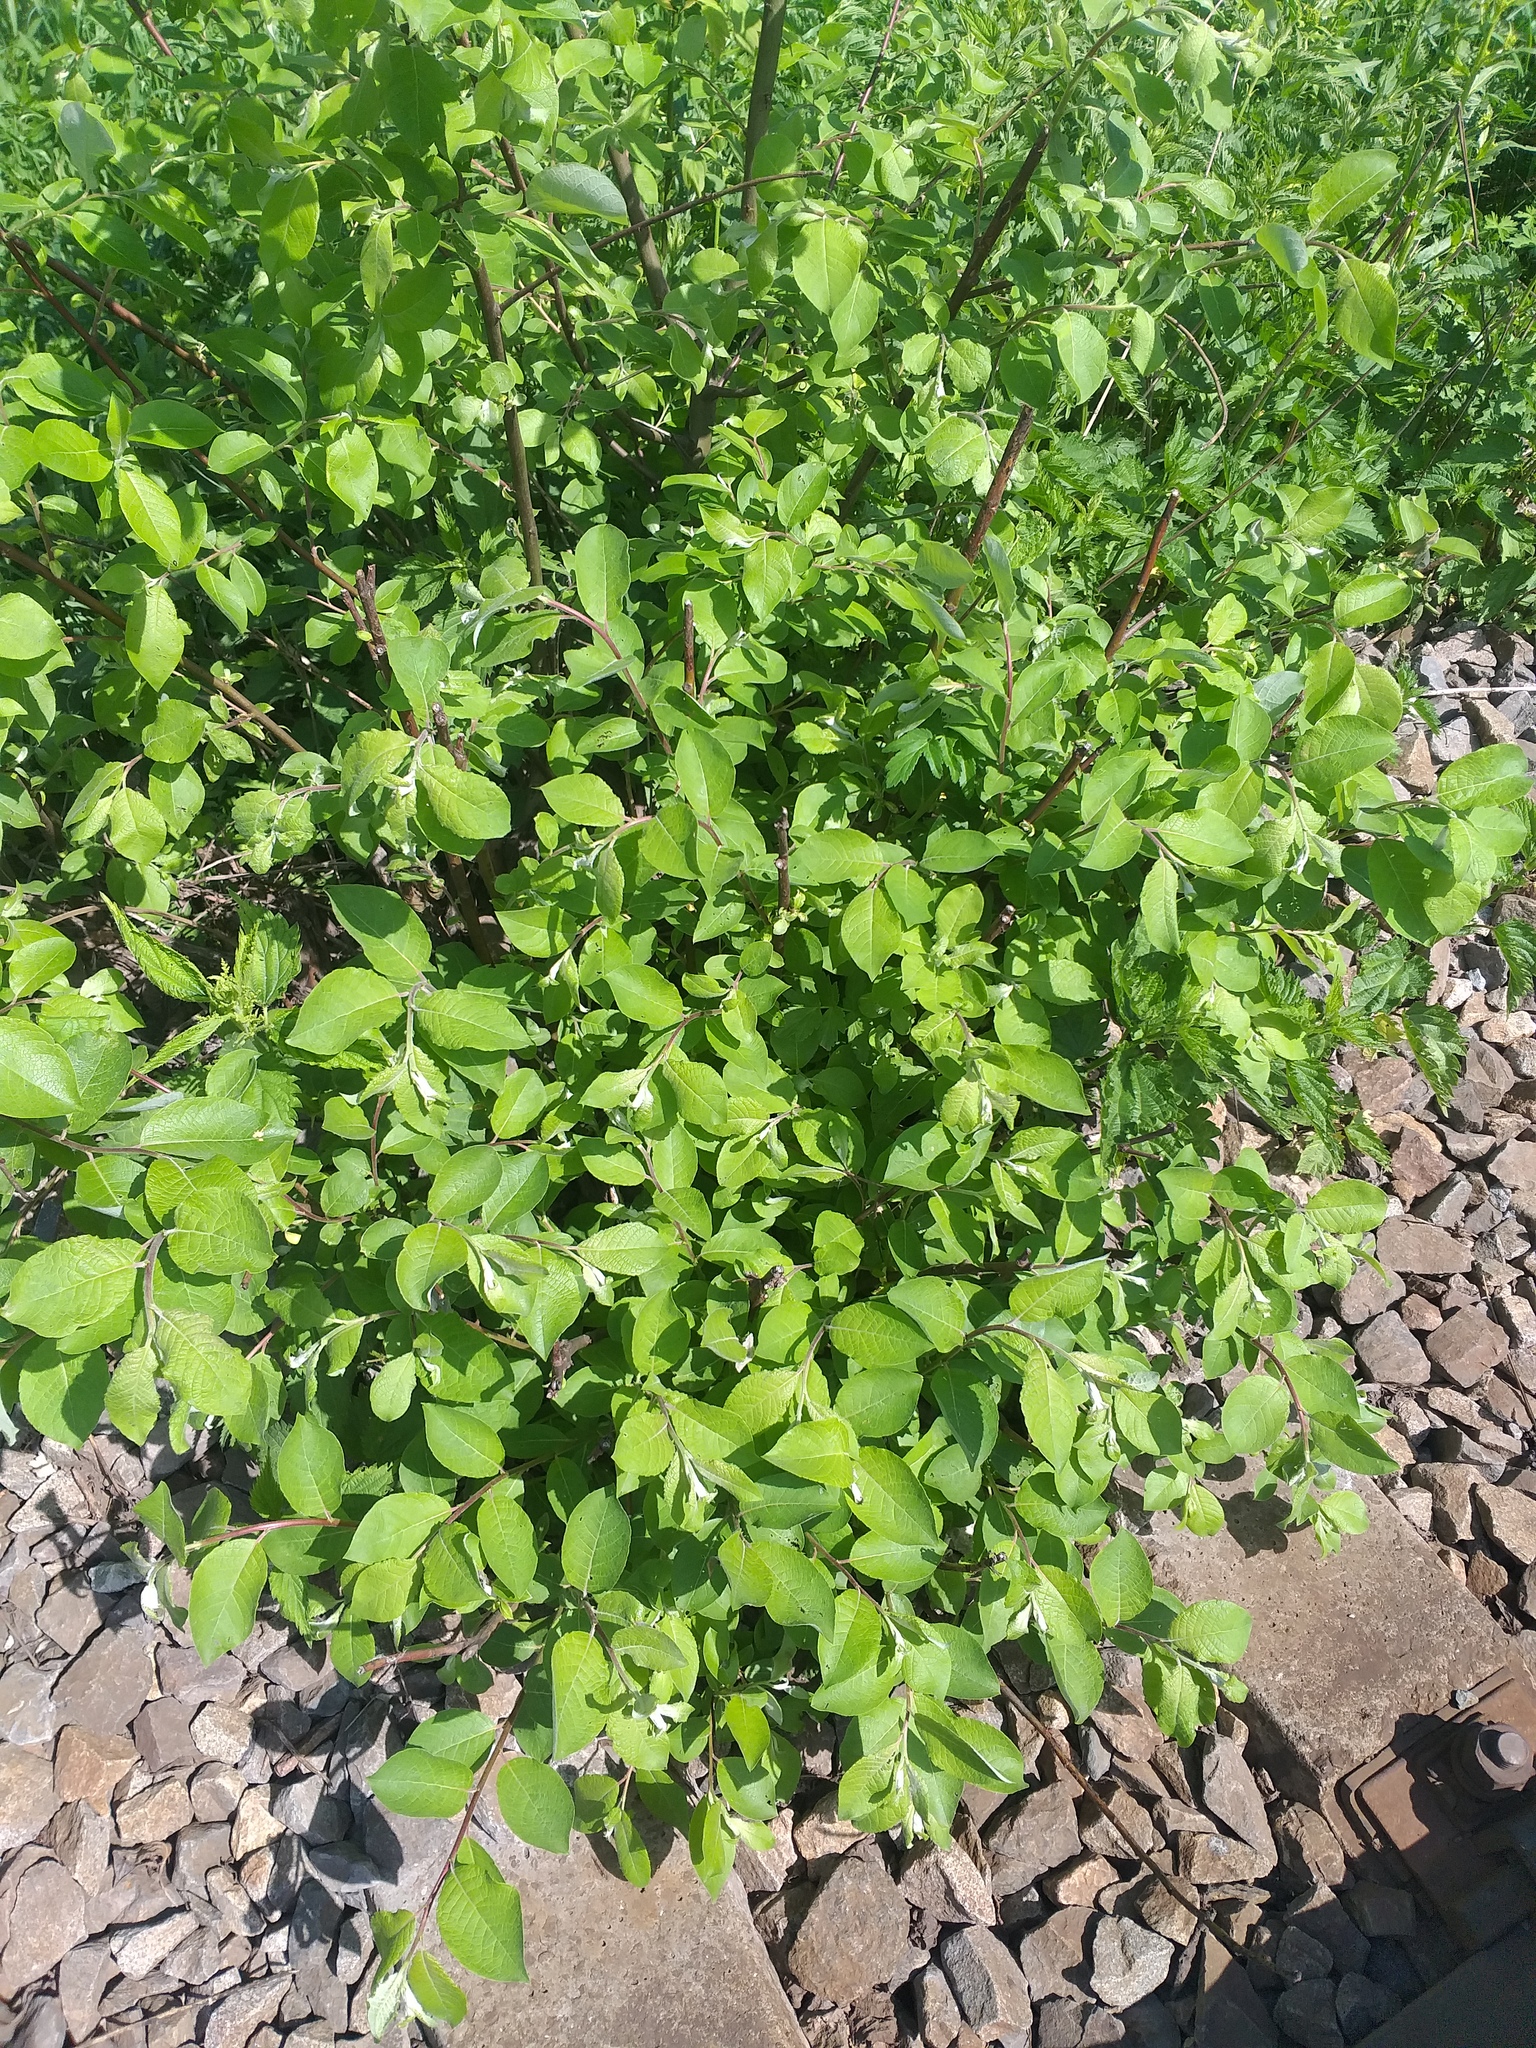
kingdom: Plantae
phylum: Tracheophyta
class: Magnoliopsida
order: Malpighiales
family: Salicaceae
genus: Salix
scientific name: Salix caprea
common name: Goat willow
